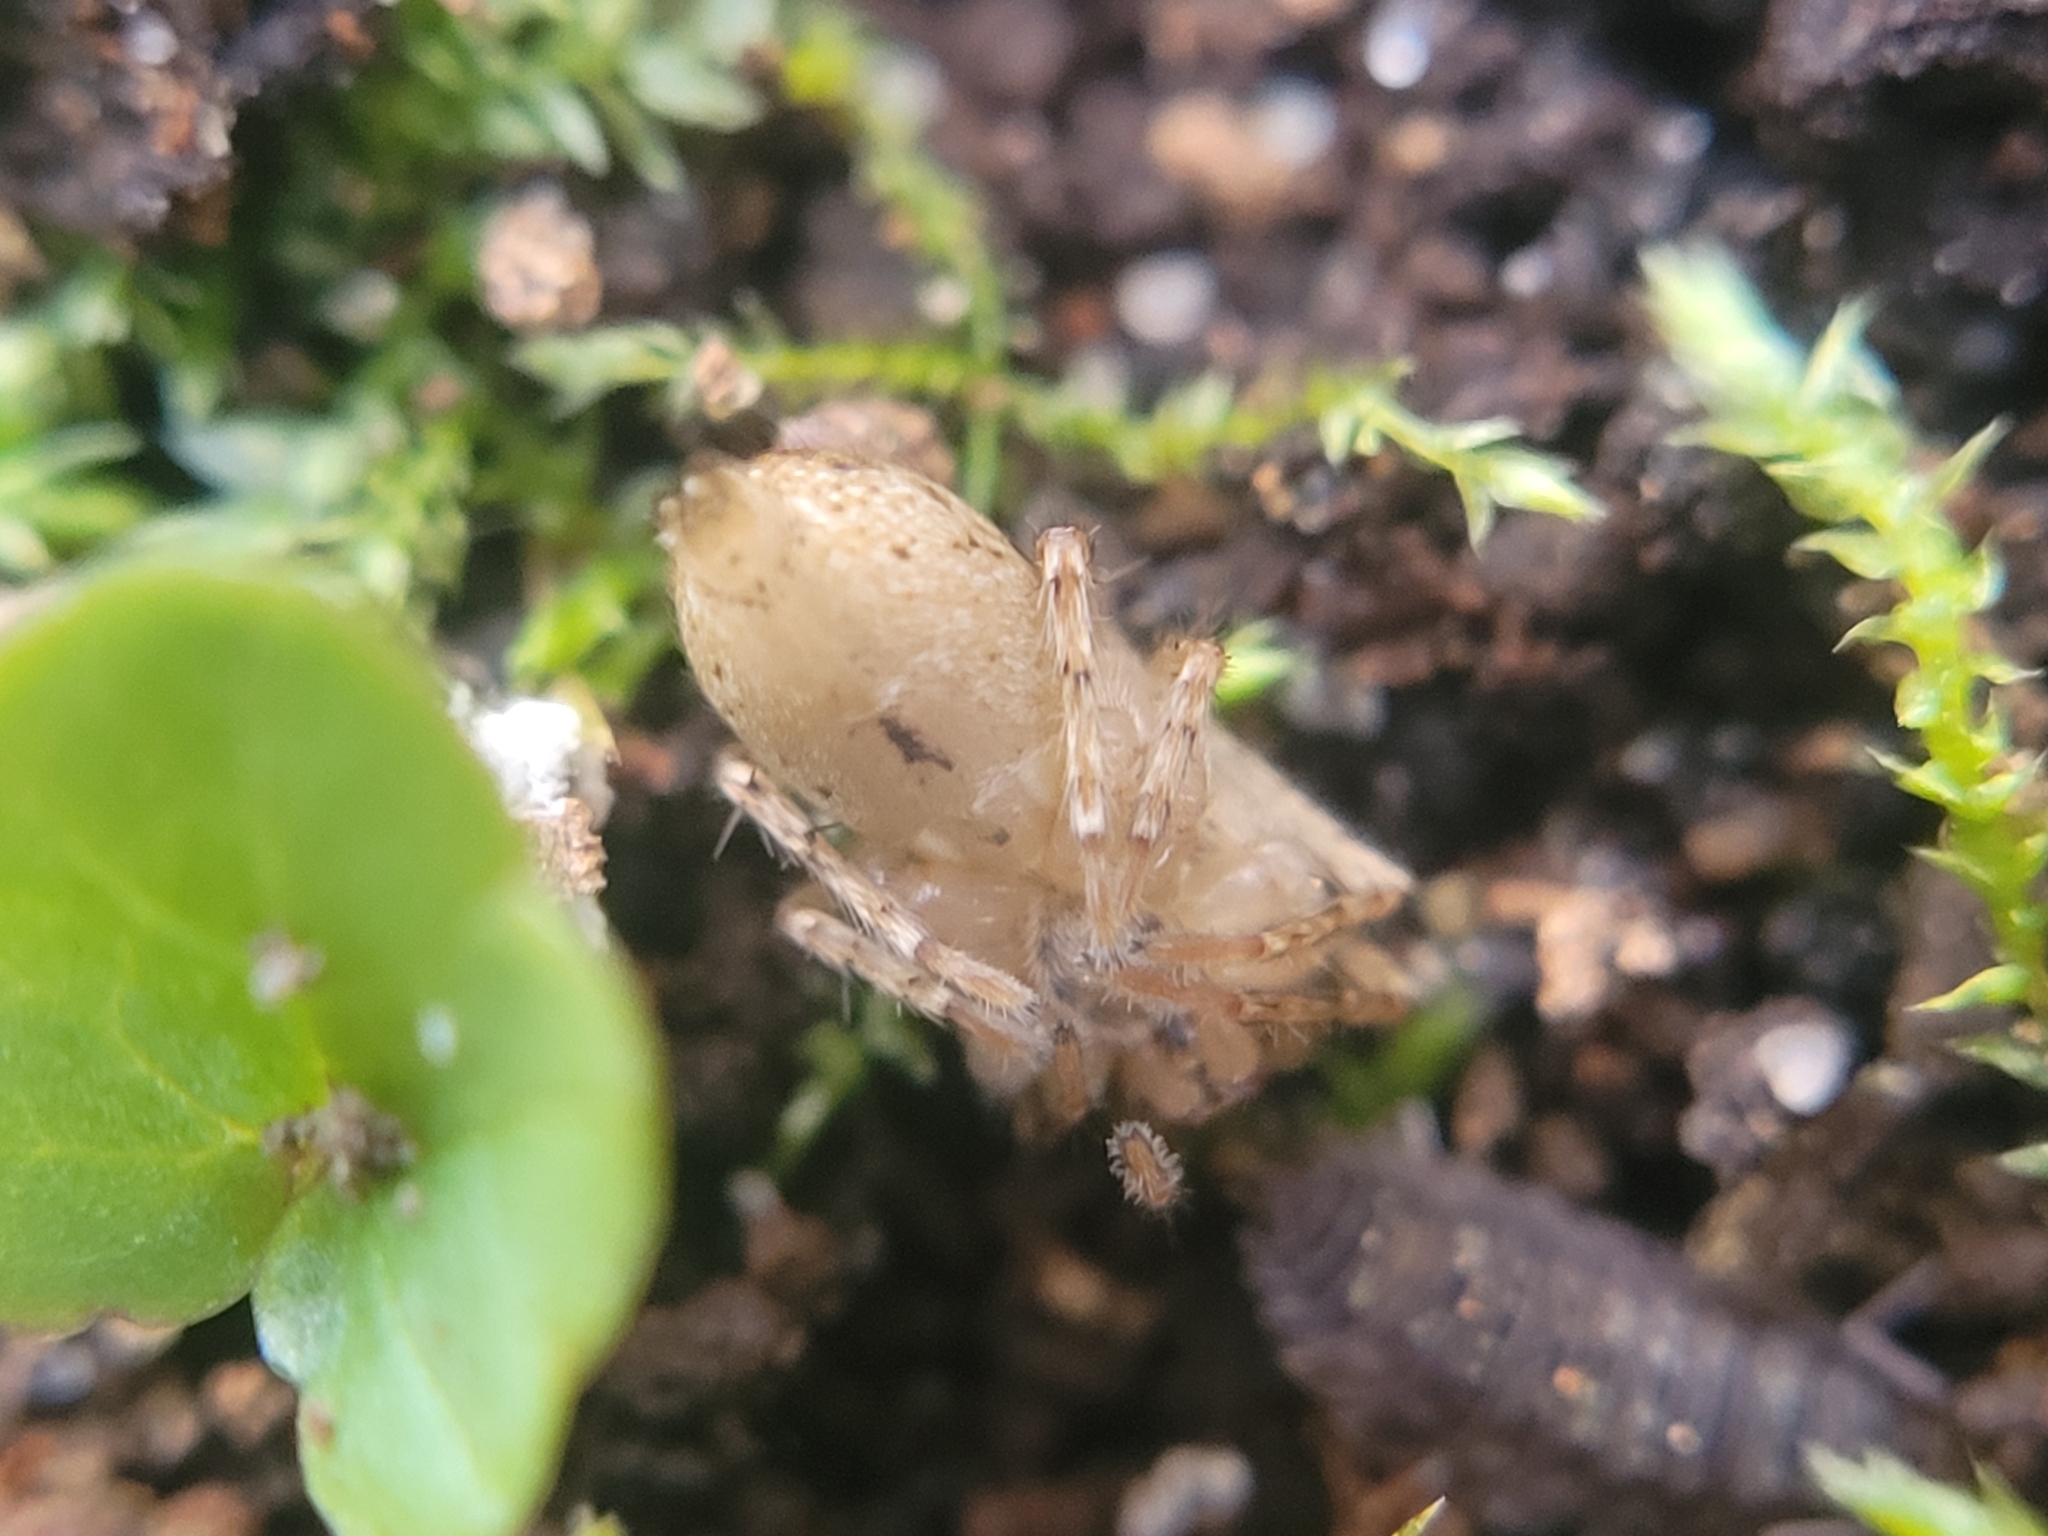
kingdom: Animalia
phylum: Arthropoda
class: Arachnida
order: Araneae
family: Anyphaenidae
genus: Anyphaena
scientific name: Anyphaena accentuata
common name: Buzzing spider
